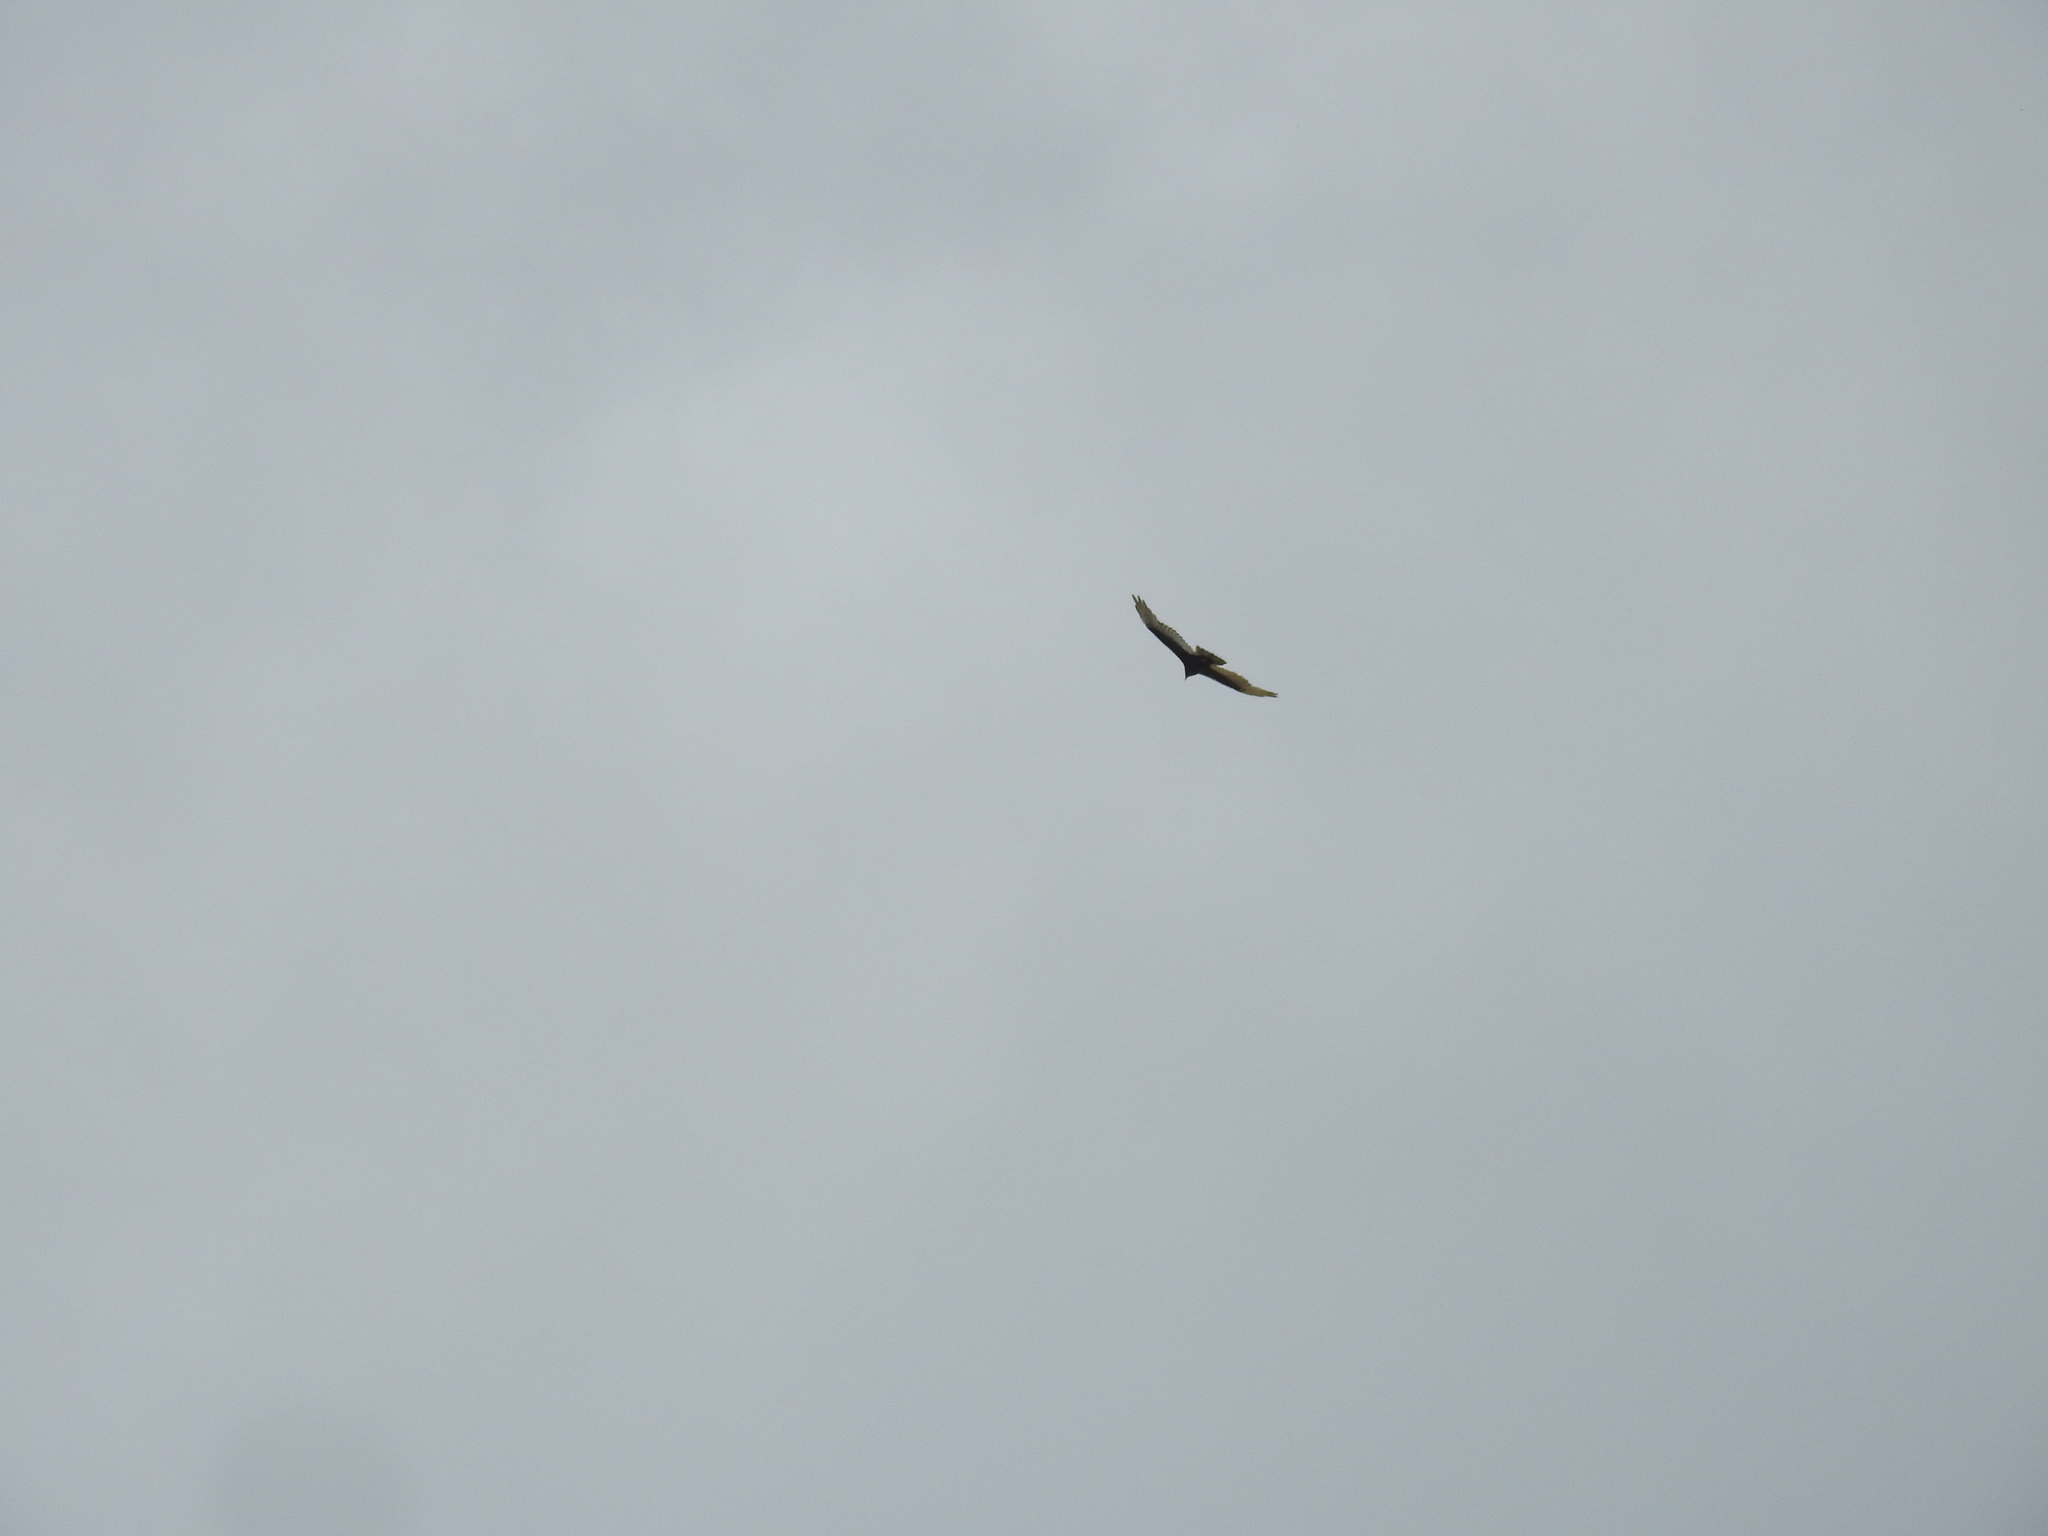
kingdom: Animalia
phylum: Chordata
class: Aves
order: Accipitriformes
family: Cathartidae
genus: Cathartes
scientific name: Cathartes aura
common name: Turkey vulture
